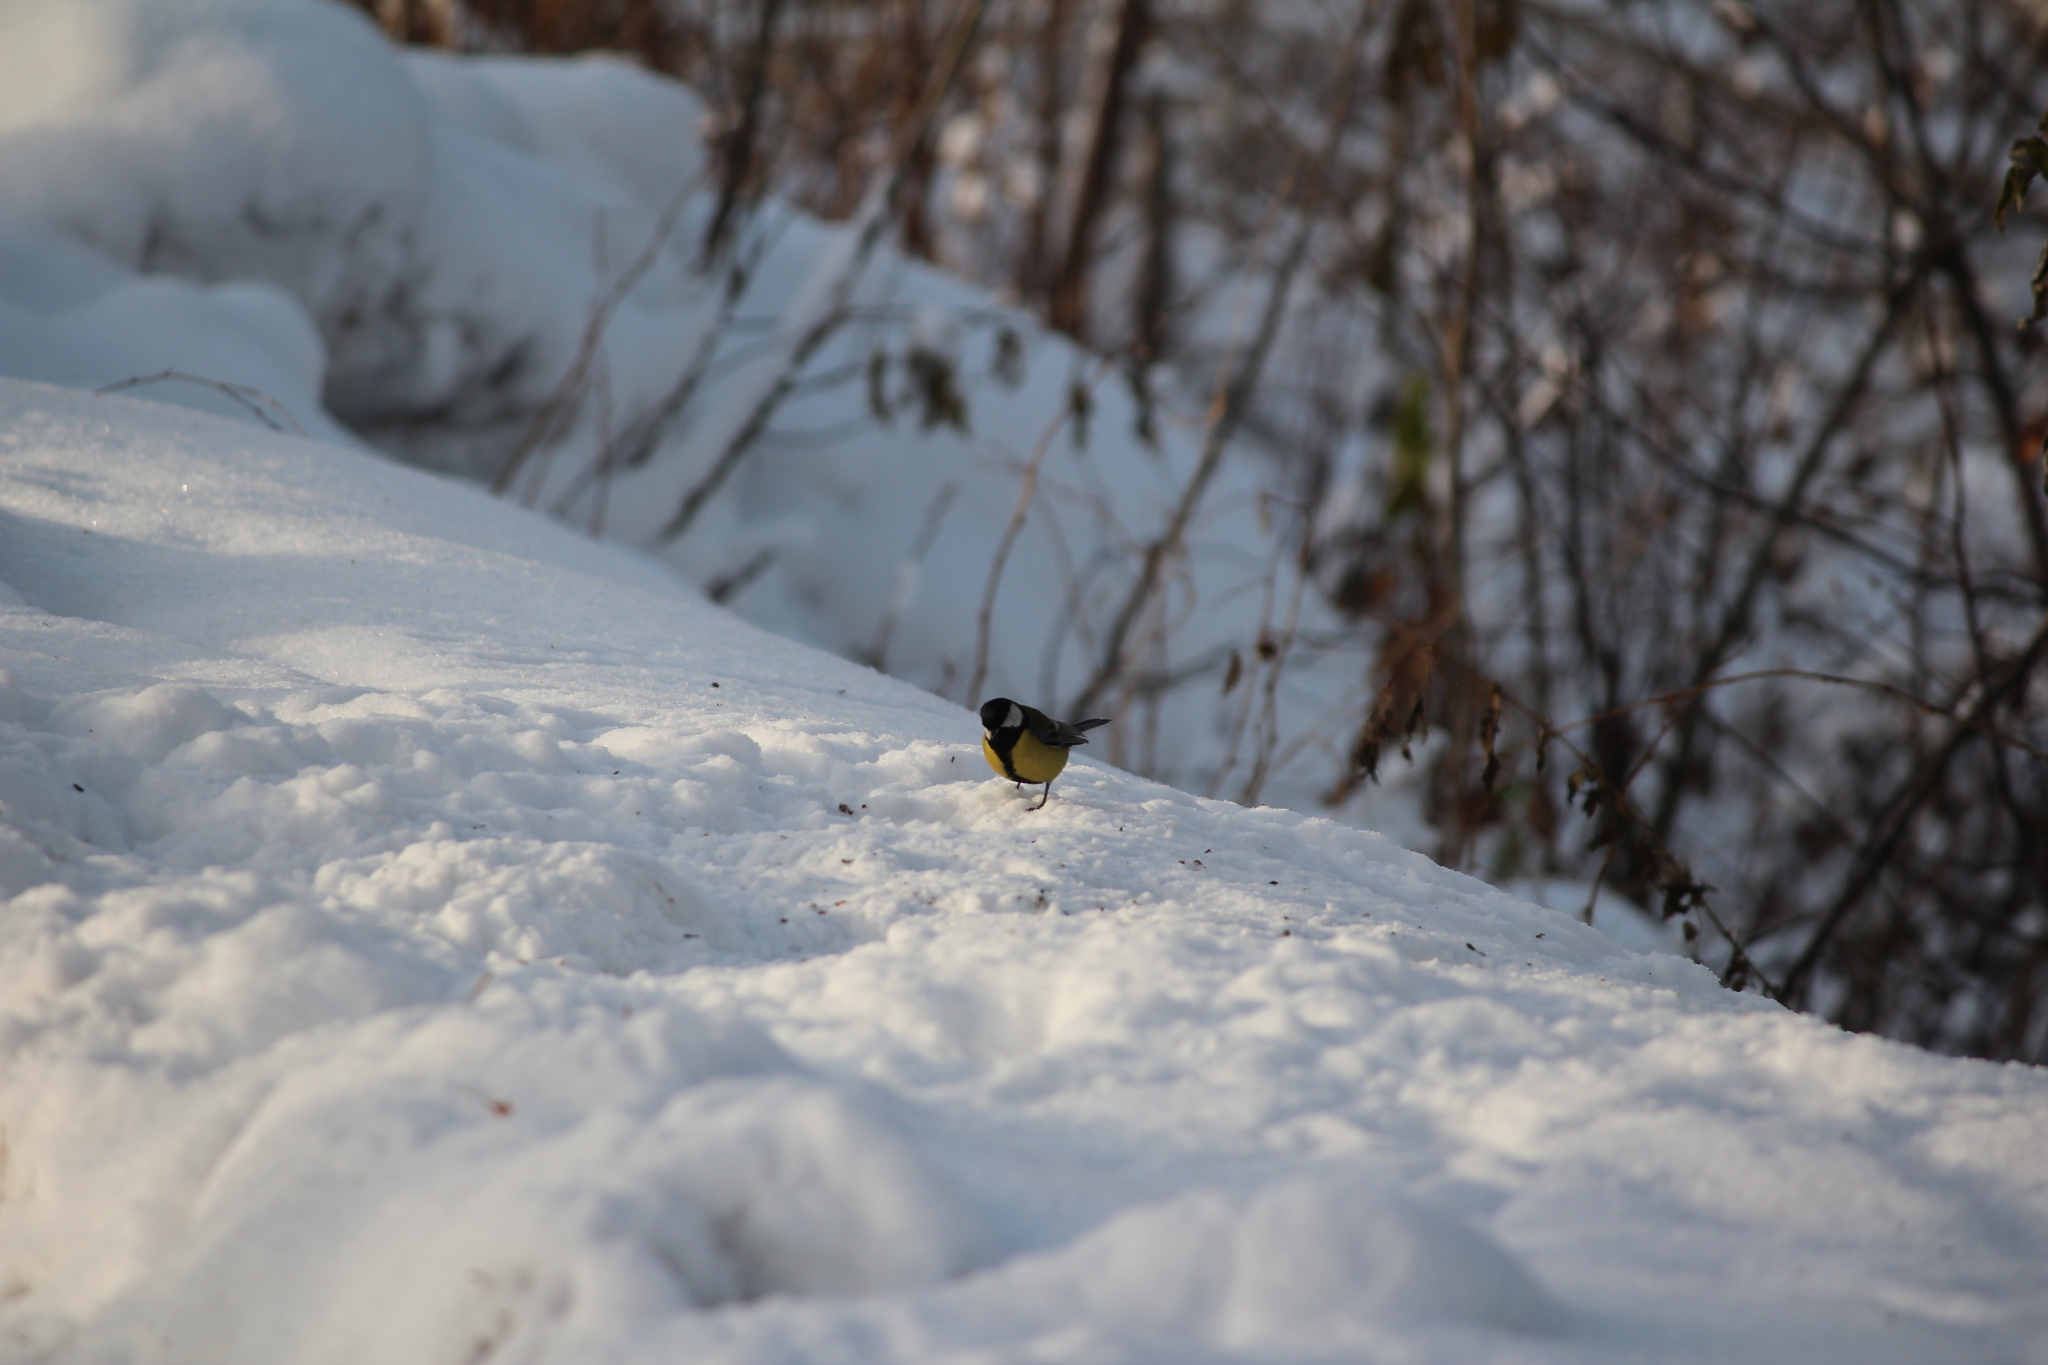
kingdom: Animalia
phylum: Chordata
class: Aves
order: Passeriformes
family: Paridae
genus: Parus
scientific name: Parus major
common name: Great tit
